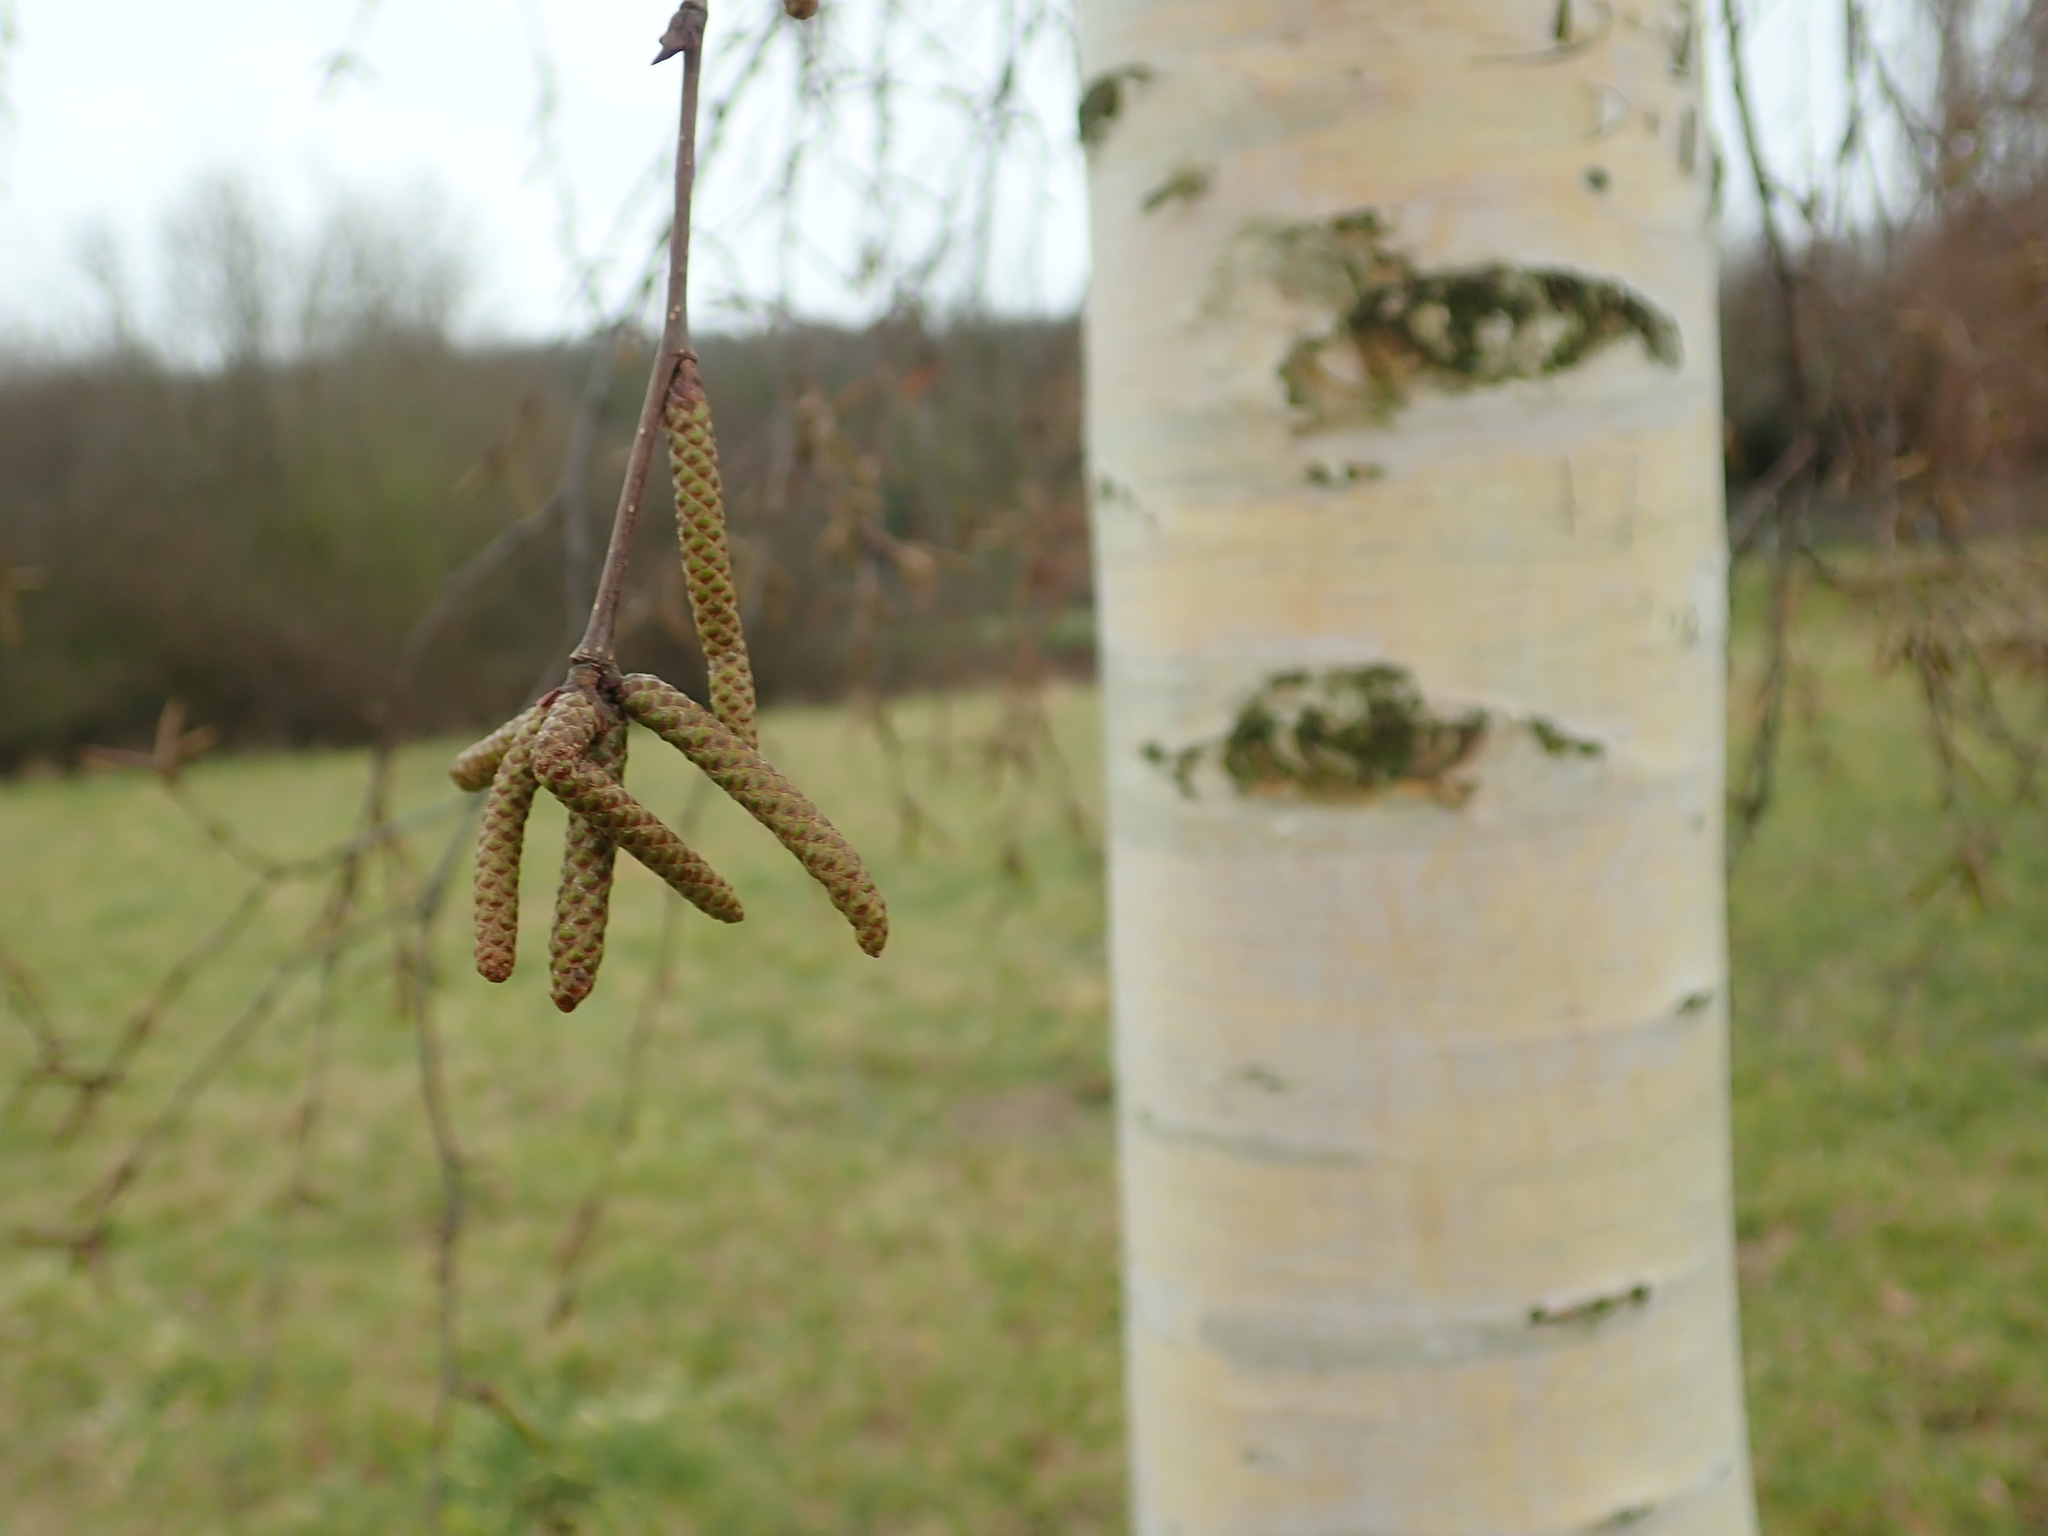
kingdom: Plantae
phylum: Tracheophyta
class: Magnoliopsida
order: Fagales
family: Betulaceae
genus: Betula
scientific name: Betula pendula
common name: Silver birch
